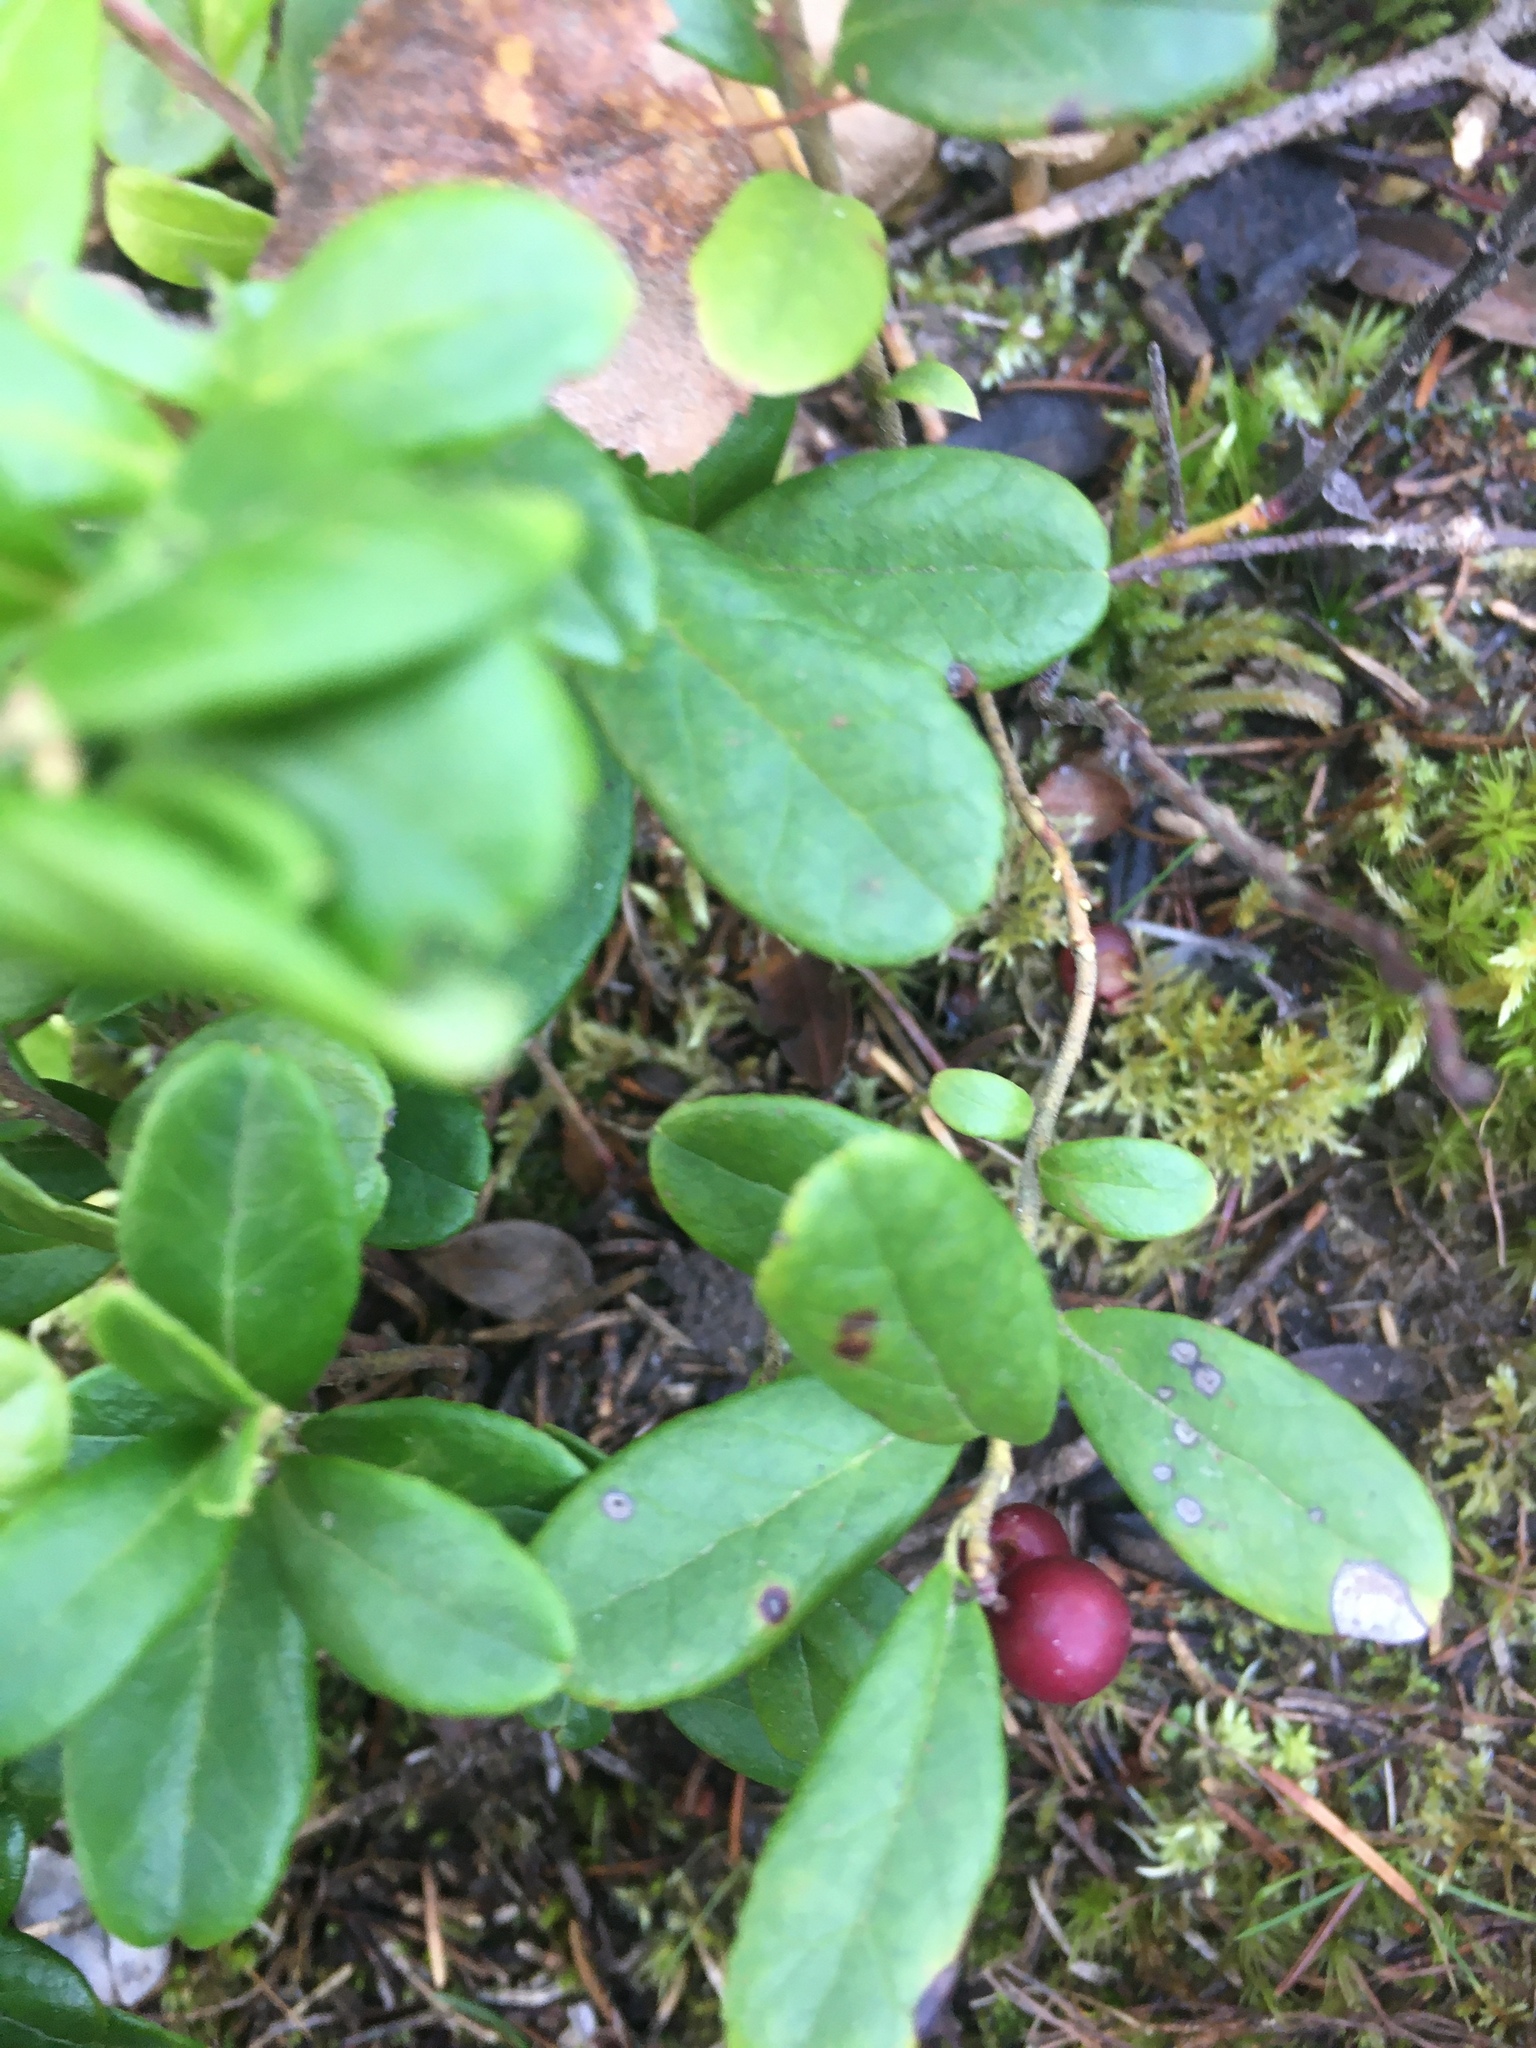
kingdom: Plantae
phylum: Tracheophyta
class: Magnoliopsida
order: Ericales
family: Ericaceae
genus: Vaccinium
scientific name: Vaccinium vitis-idaea
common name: Cowberry
